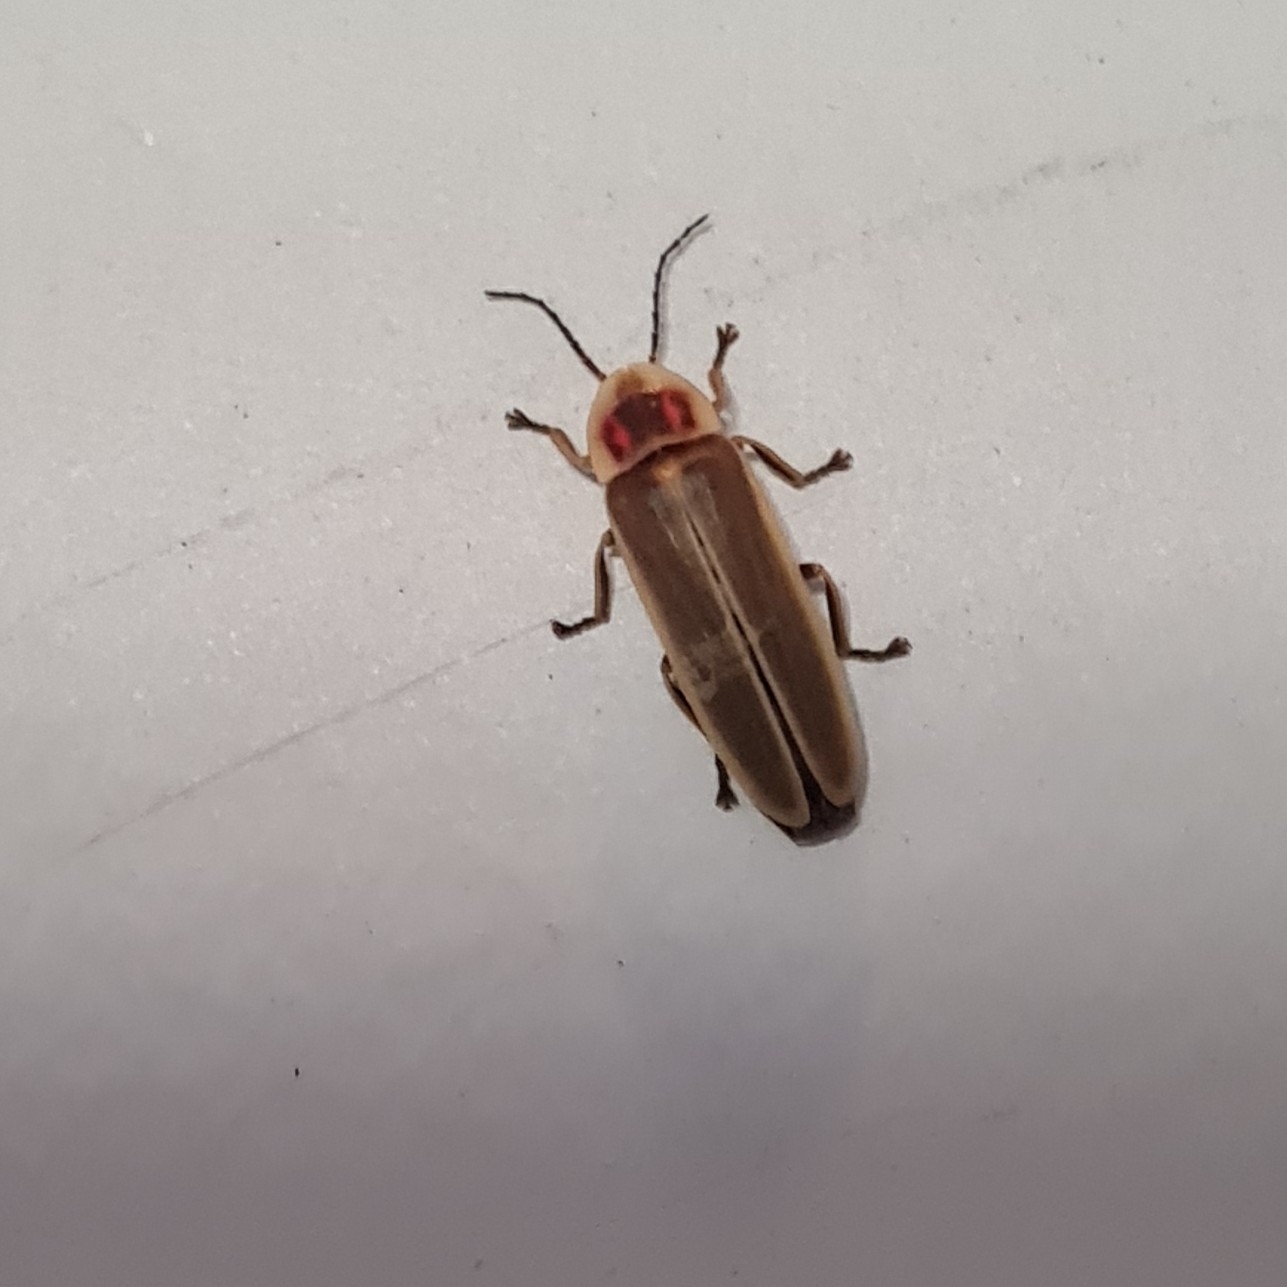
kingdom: Animalia
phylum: Arthropoda
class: Insecta
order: Coleoptera
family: Lampyridae
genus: Photinus
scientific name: Photinus signaticollis
